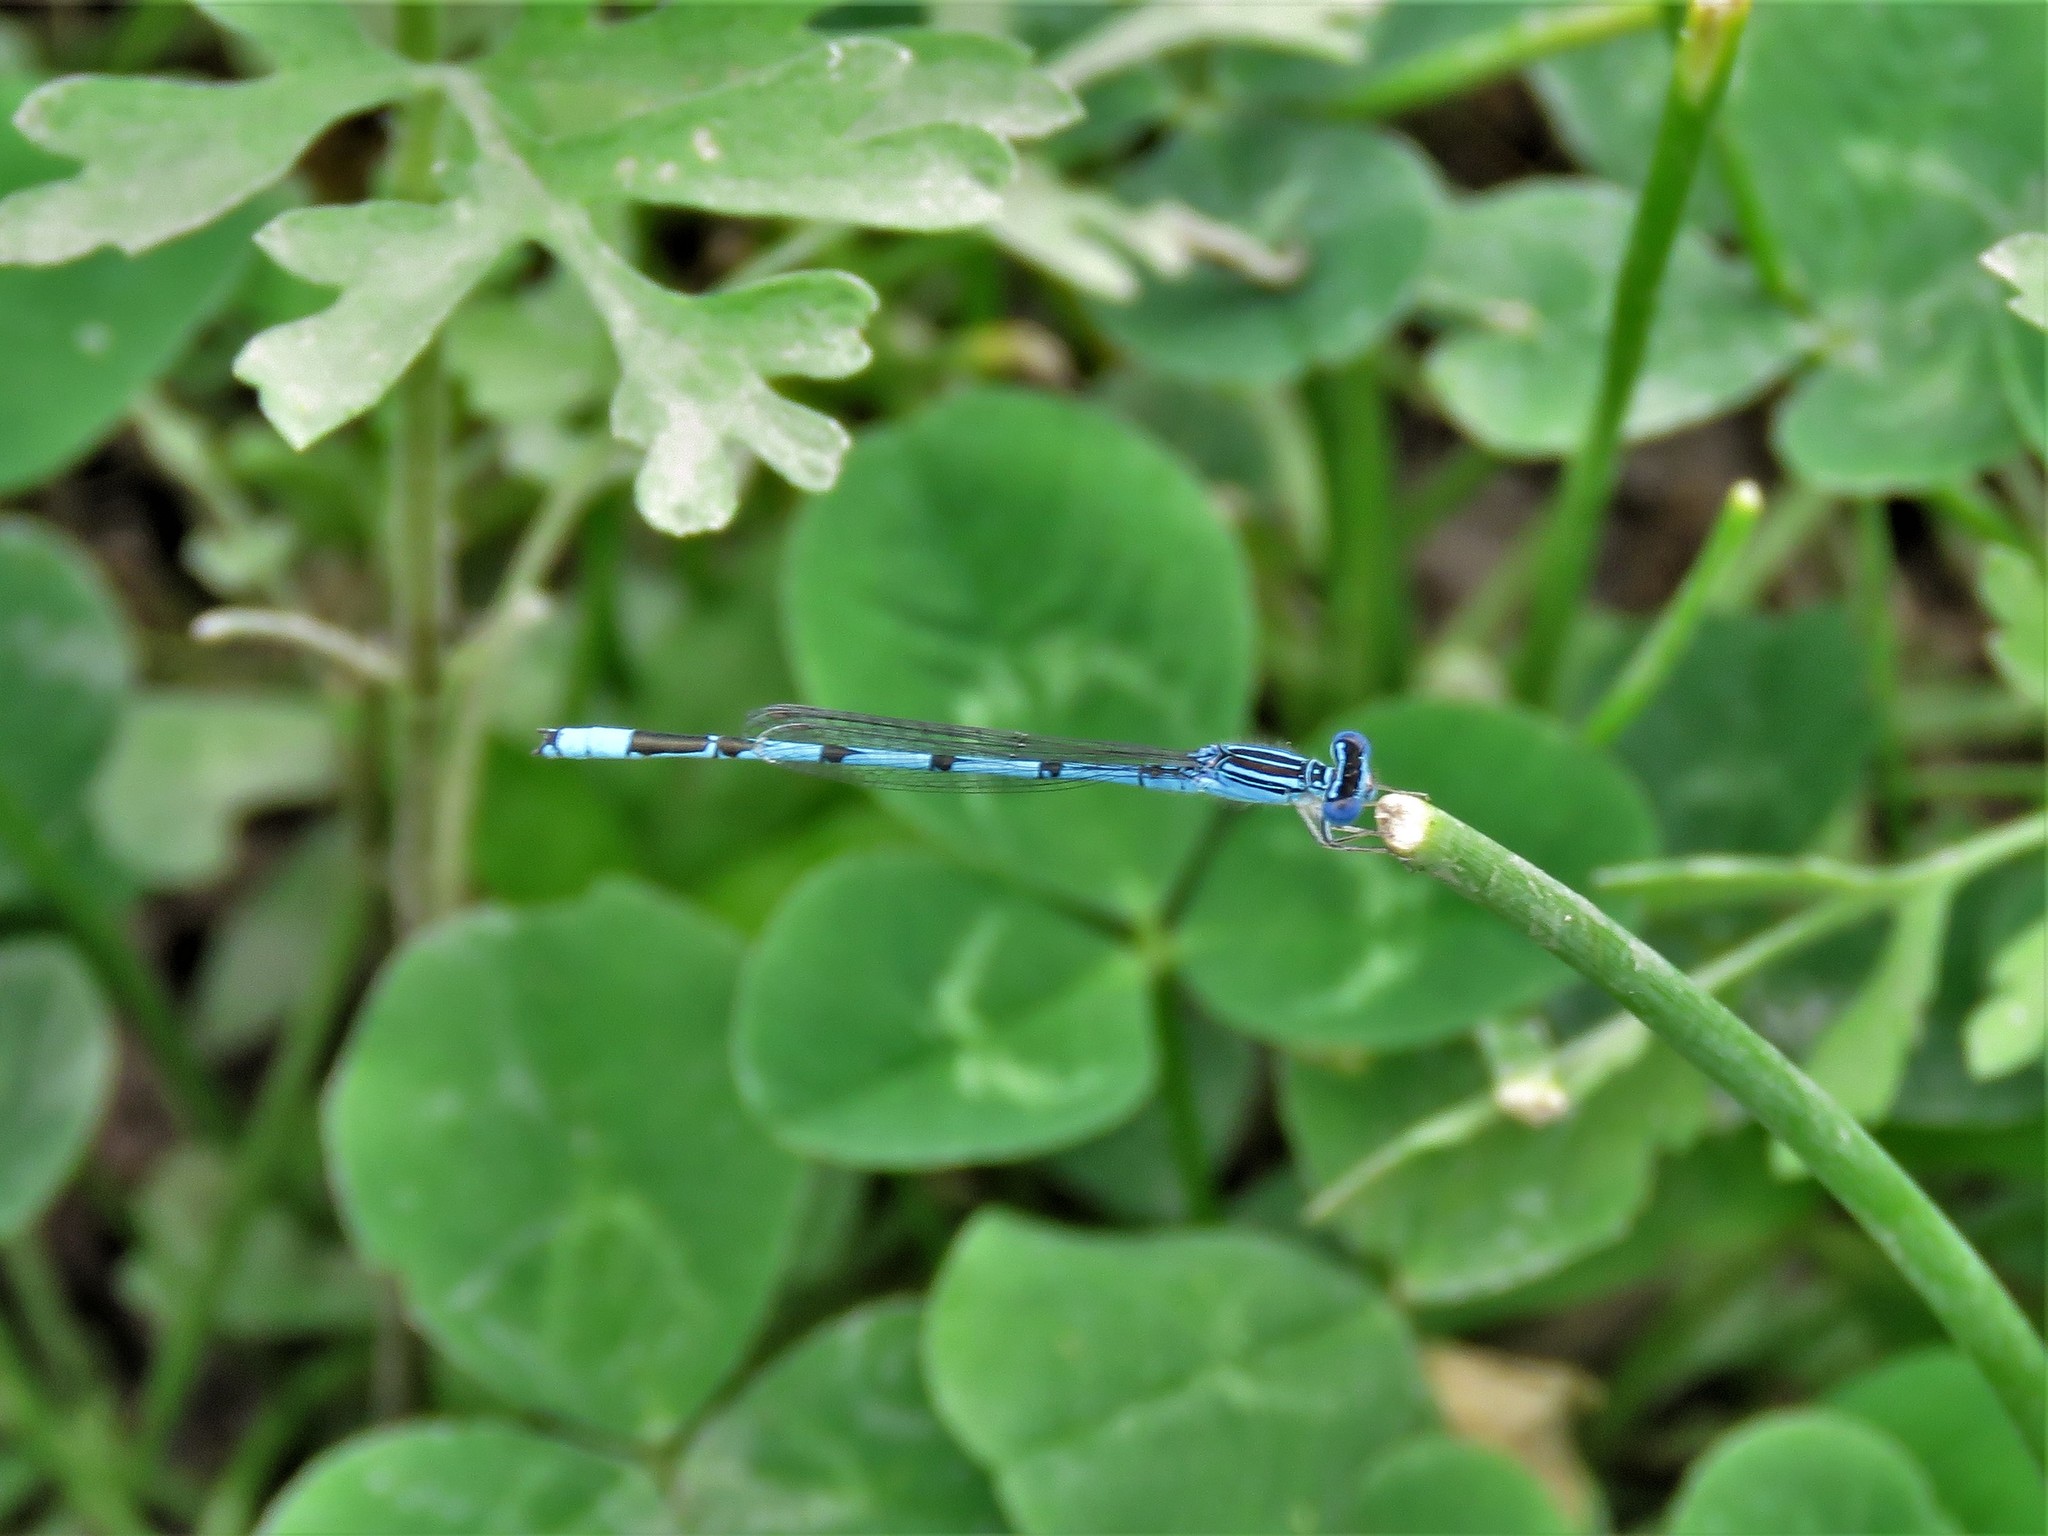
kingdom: Animalia
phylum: Arthropoda
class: Insecta
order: Odonata
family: Coenagrionidae
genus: Enallagma
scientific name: Enallagma basidens
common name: Double-striped bluet
